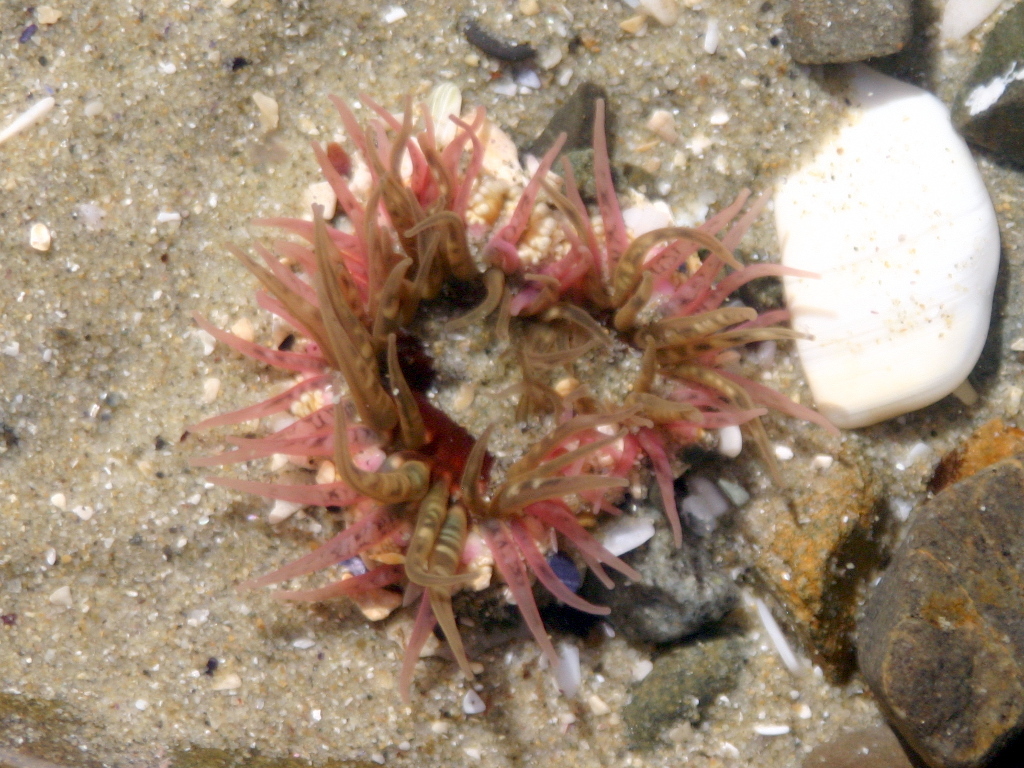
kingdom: Animalia
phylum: Cnidaria
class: Anthozoa
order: Actiniaria
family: Actiniidae
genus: Oulactis
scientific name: Oulactis muscosa
